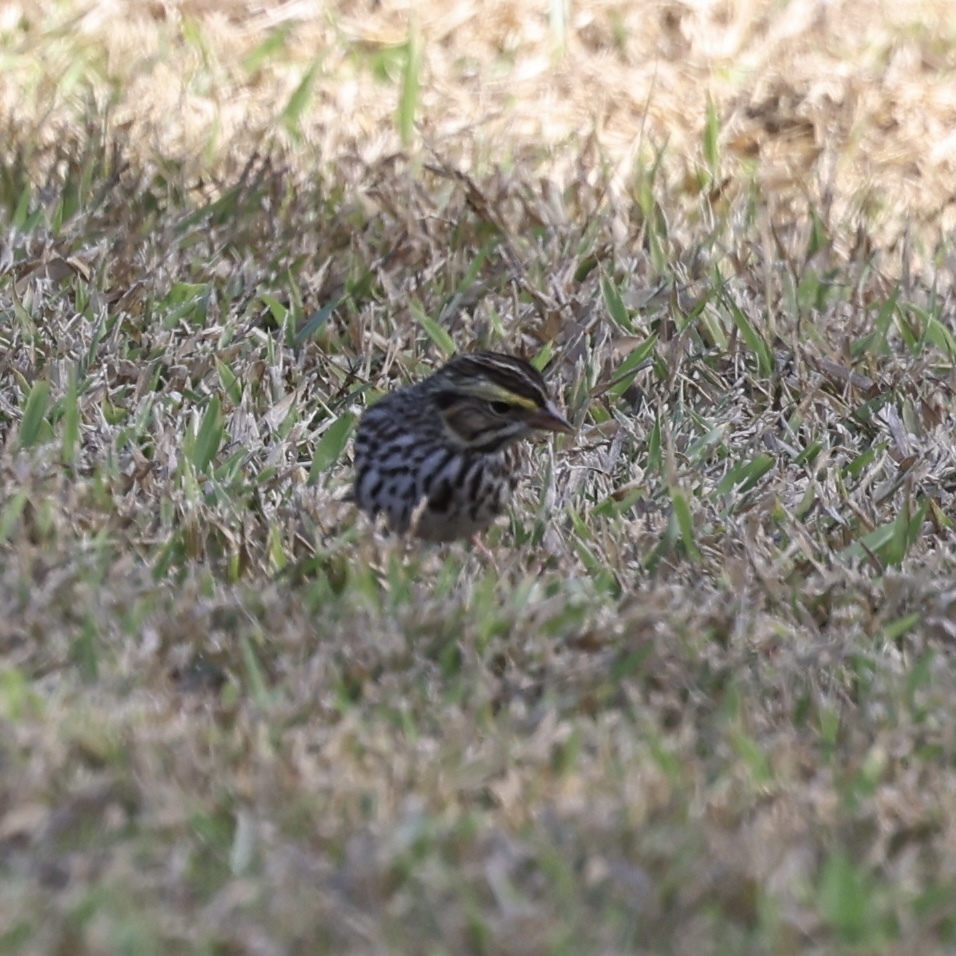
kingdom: Animalia
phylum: Chordata
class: Aves
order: Passeriformes
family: Passerellidae
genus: Passerculus
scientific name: Passerculus sandwichensis
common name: Savannah sparrow
